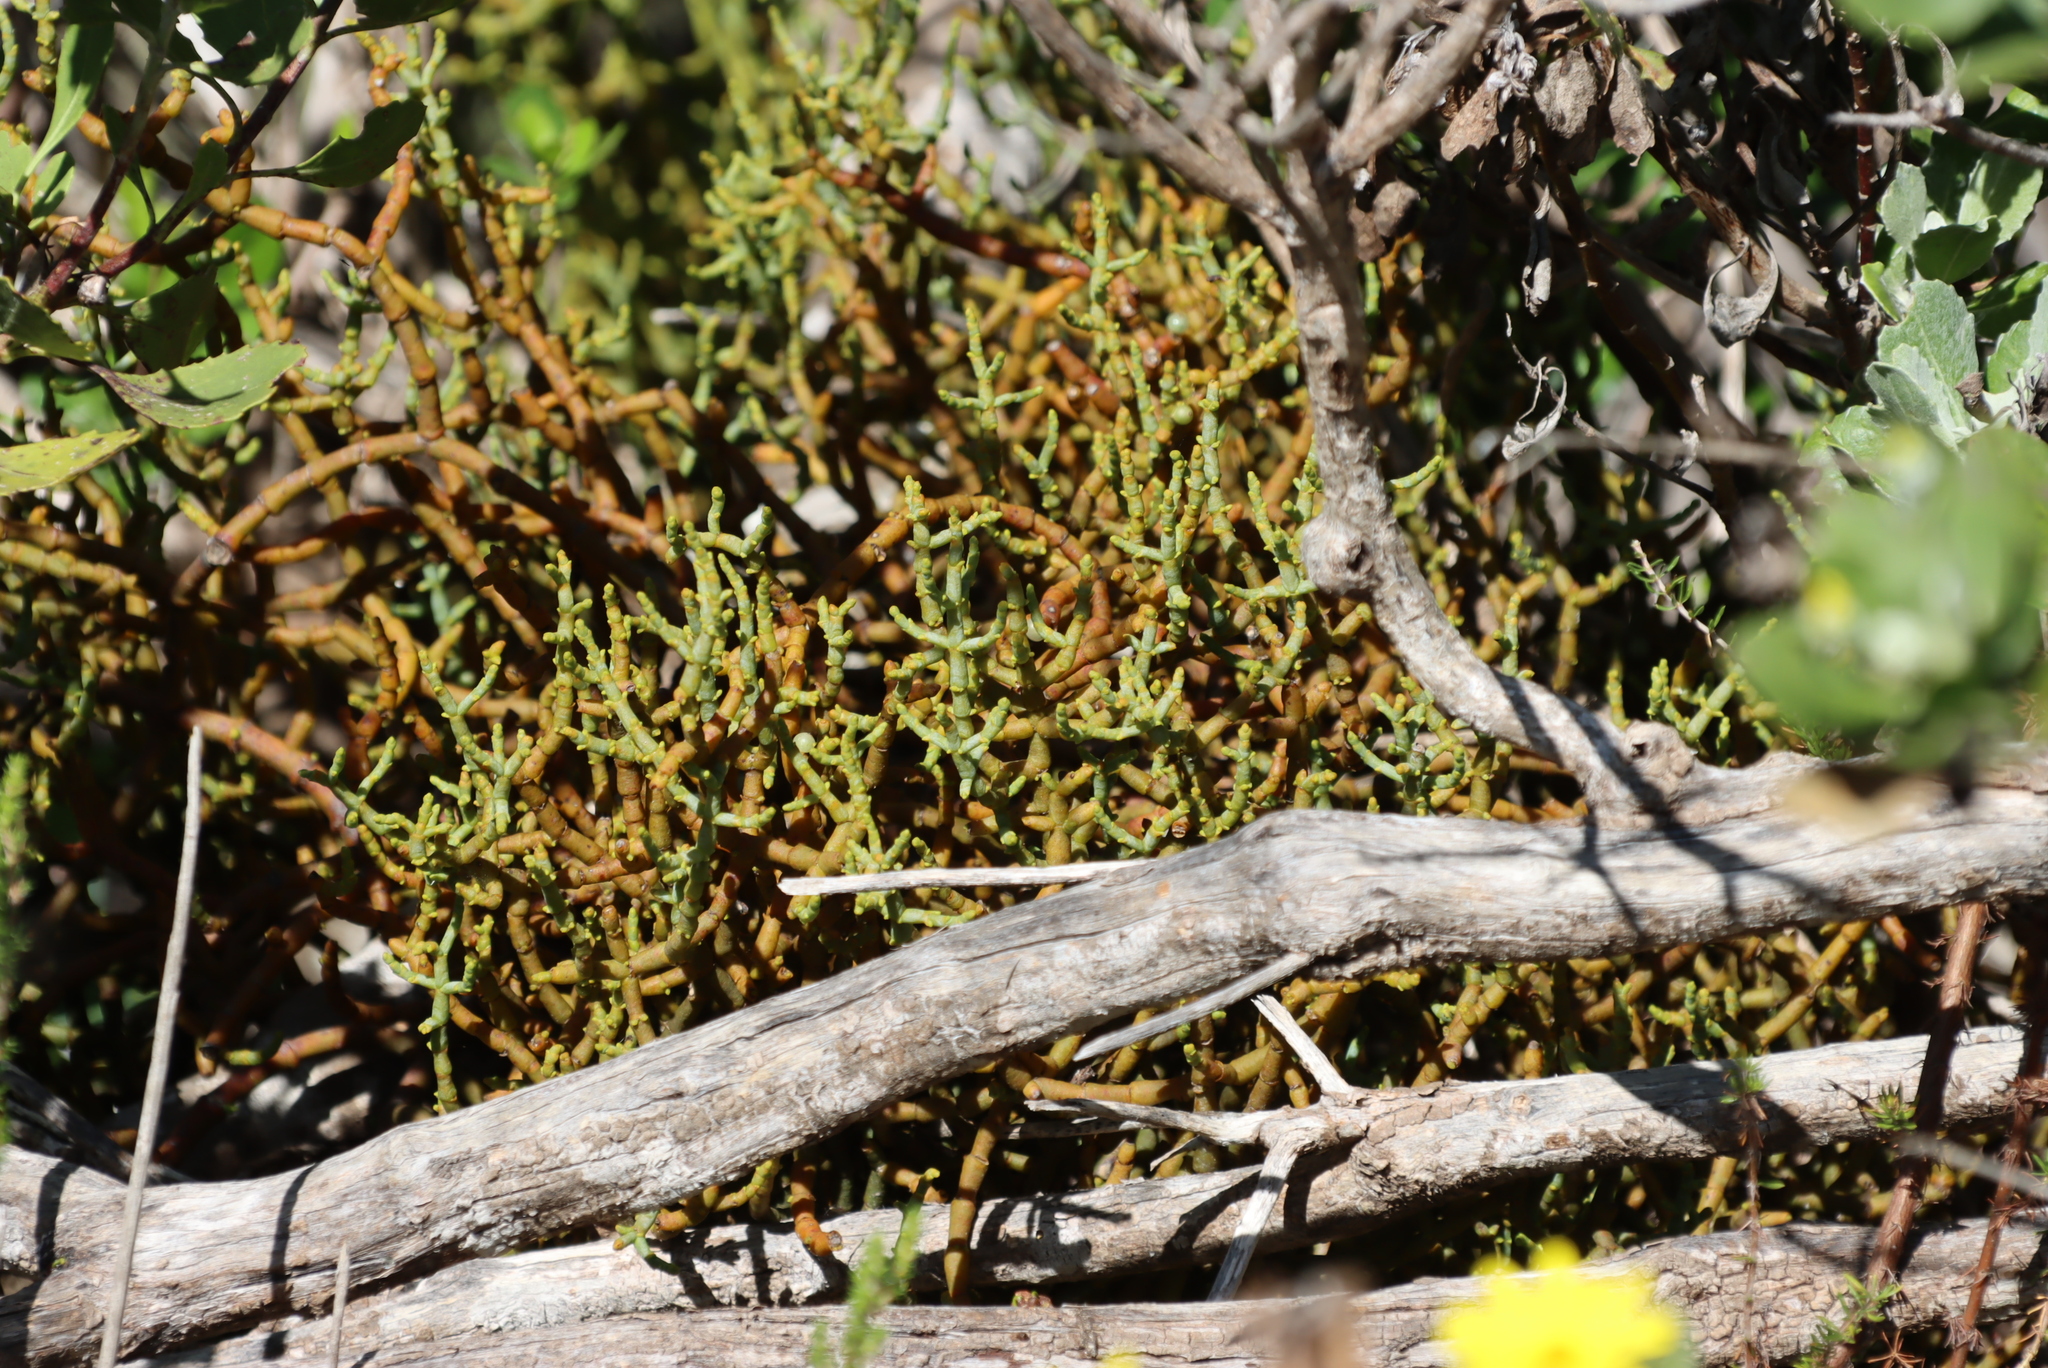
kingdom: Plantae
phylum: Tracheophyta
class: Magnoliopsida
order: Santalales
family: Viscaceae
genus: Viscum
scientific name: Viscum capense
